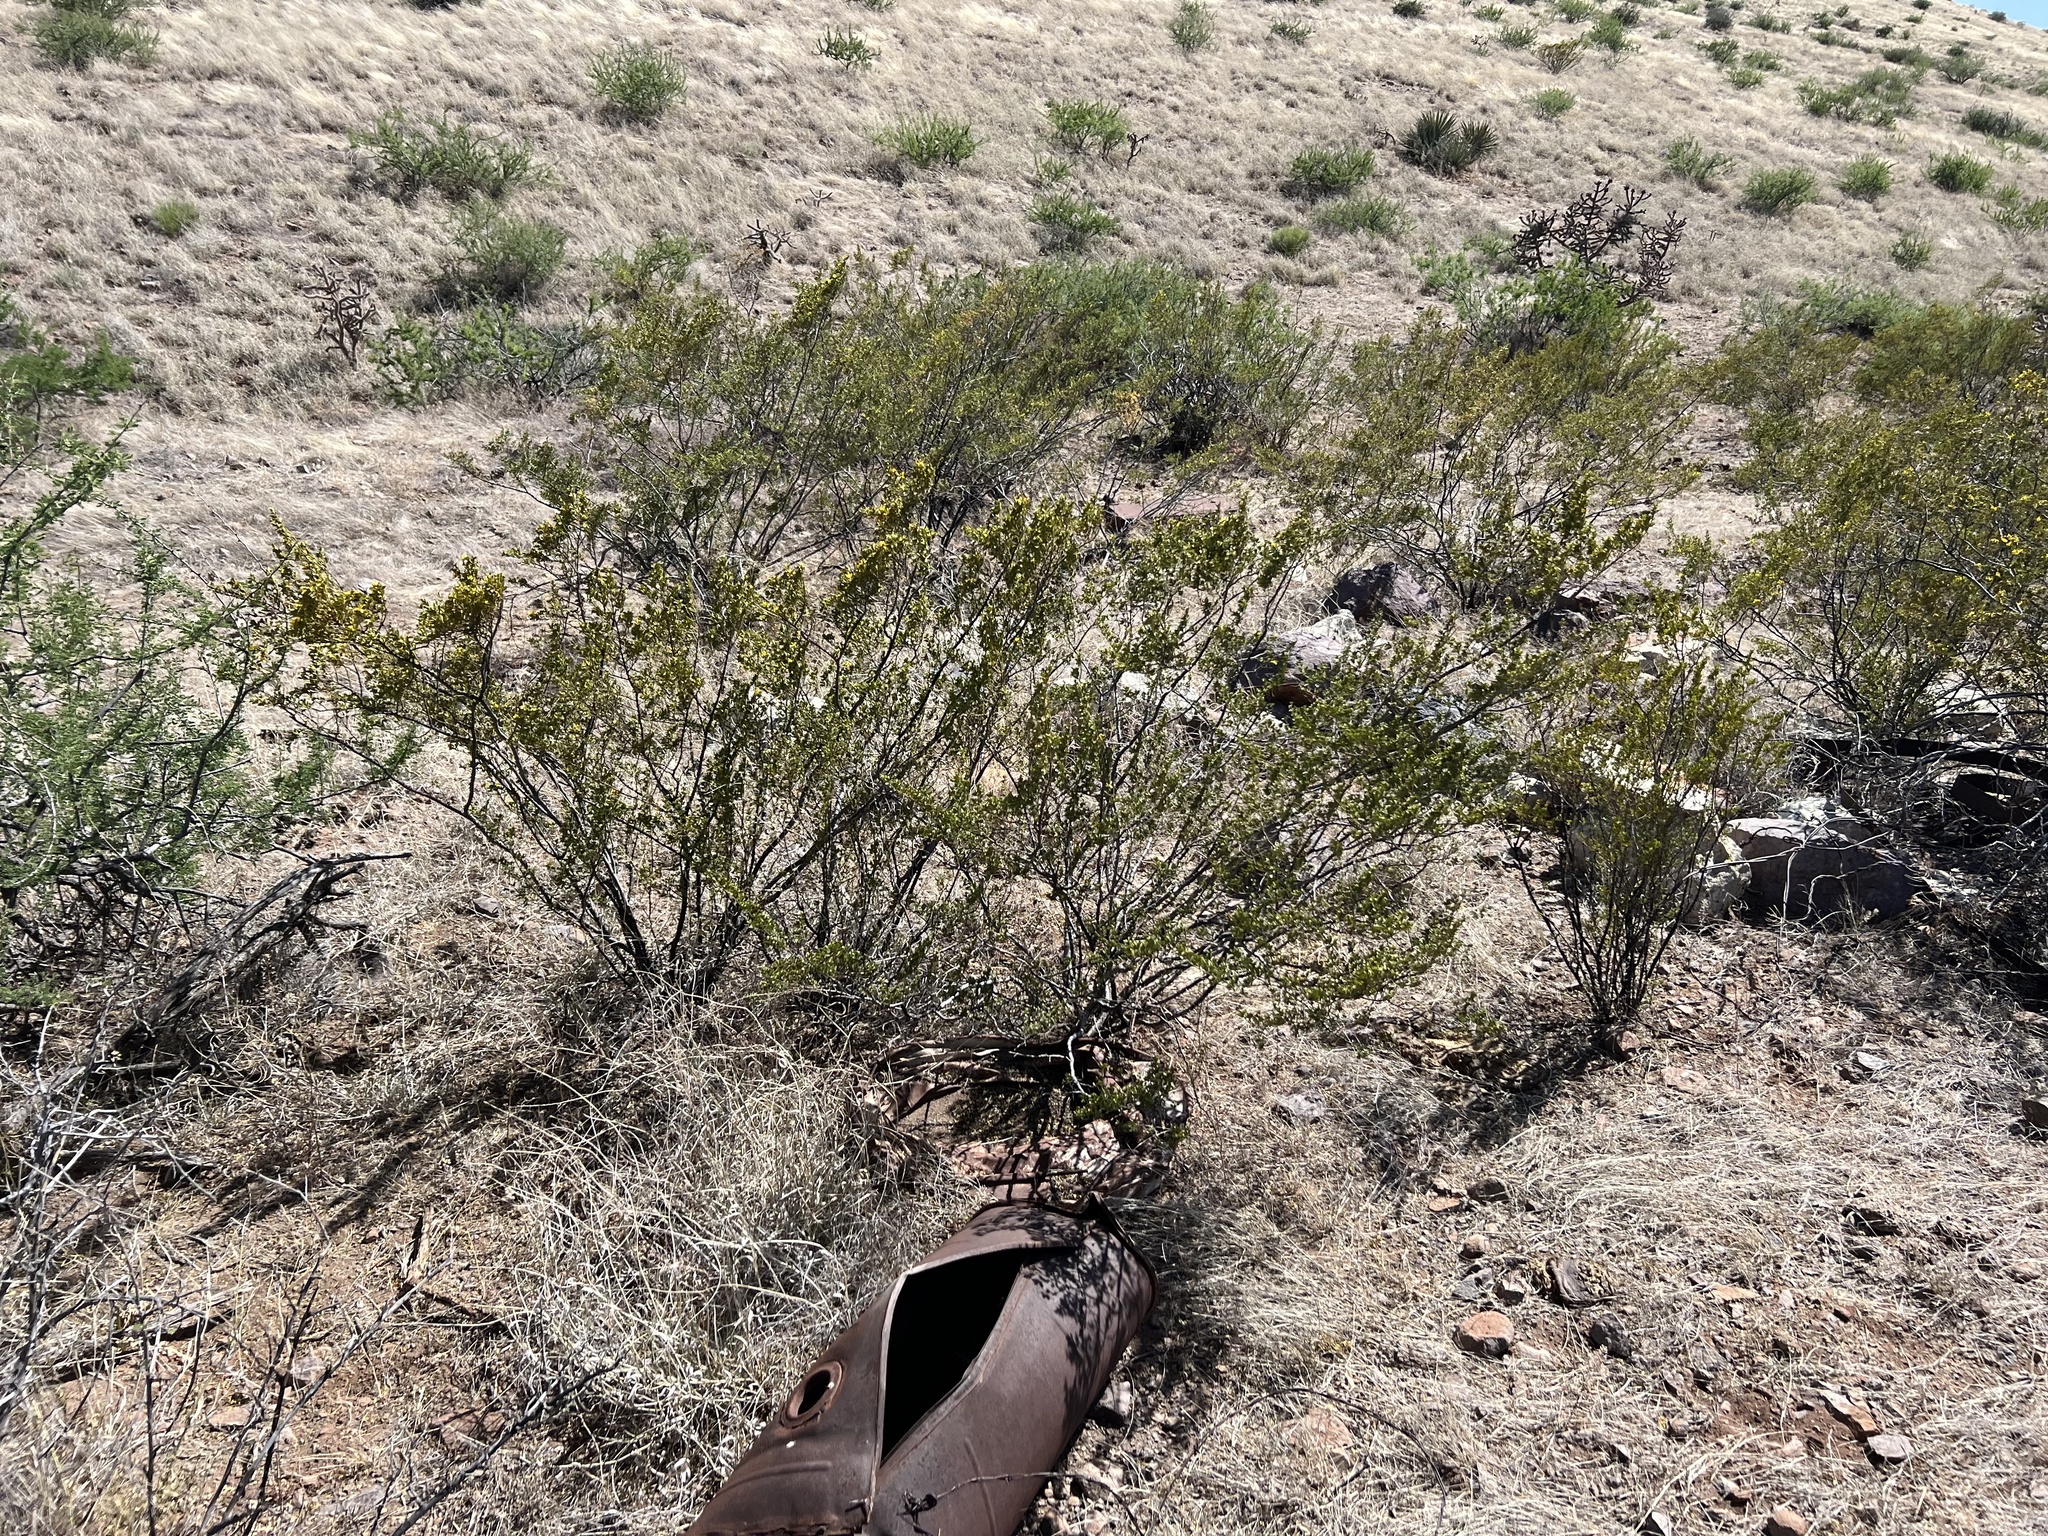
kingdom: Plantae
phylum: Tracheophyta
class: Magnoliopsida
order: Zygophyllales
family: Zygophyllaceae
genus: Larrea
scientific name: Larrea tridentata
